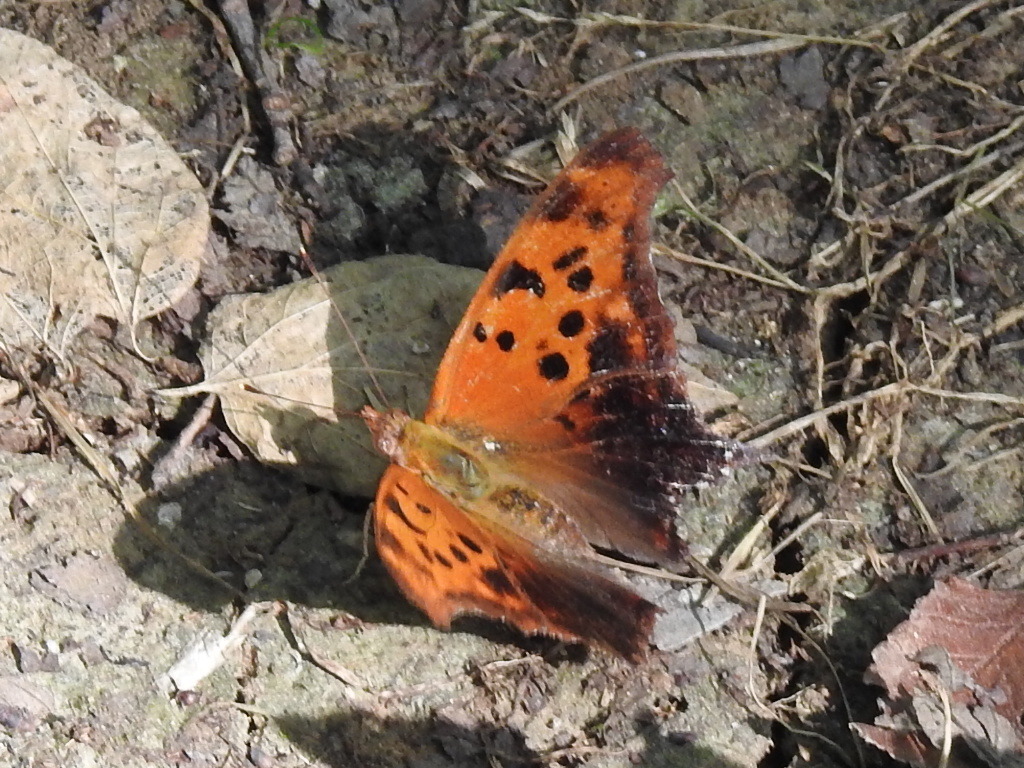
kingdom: Animalia
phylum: Arthropoda
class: Insecta
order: Lepidoptera
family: Nymphalidae
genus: Polygonia
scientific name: Polygonia interrogationis
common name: Question mark
